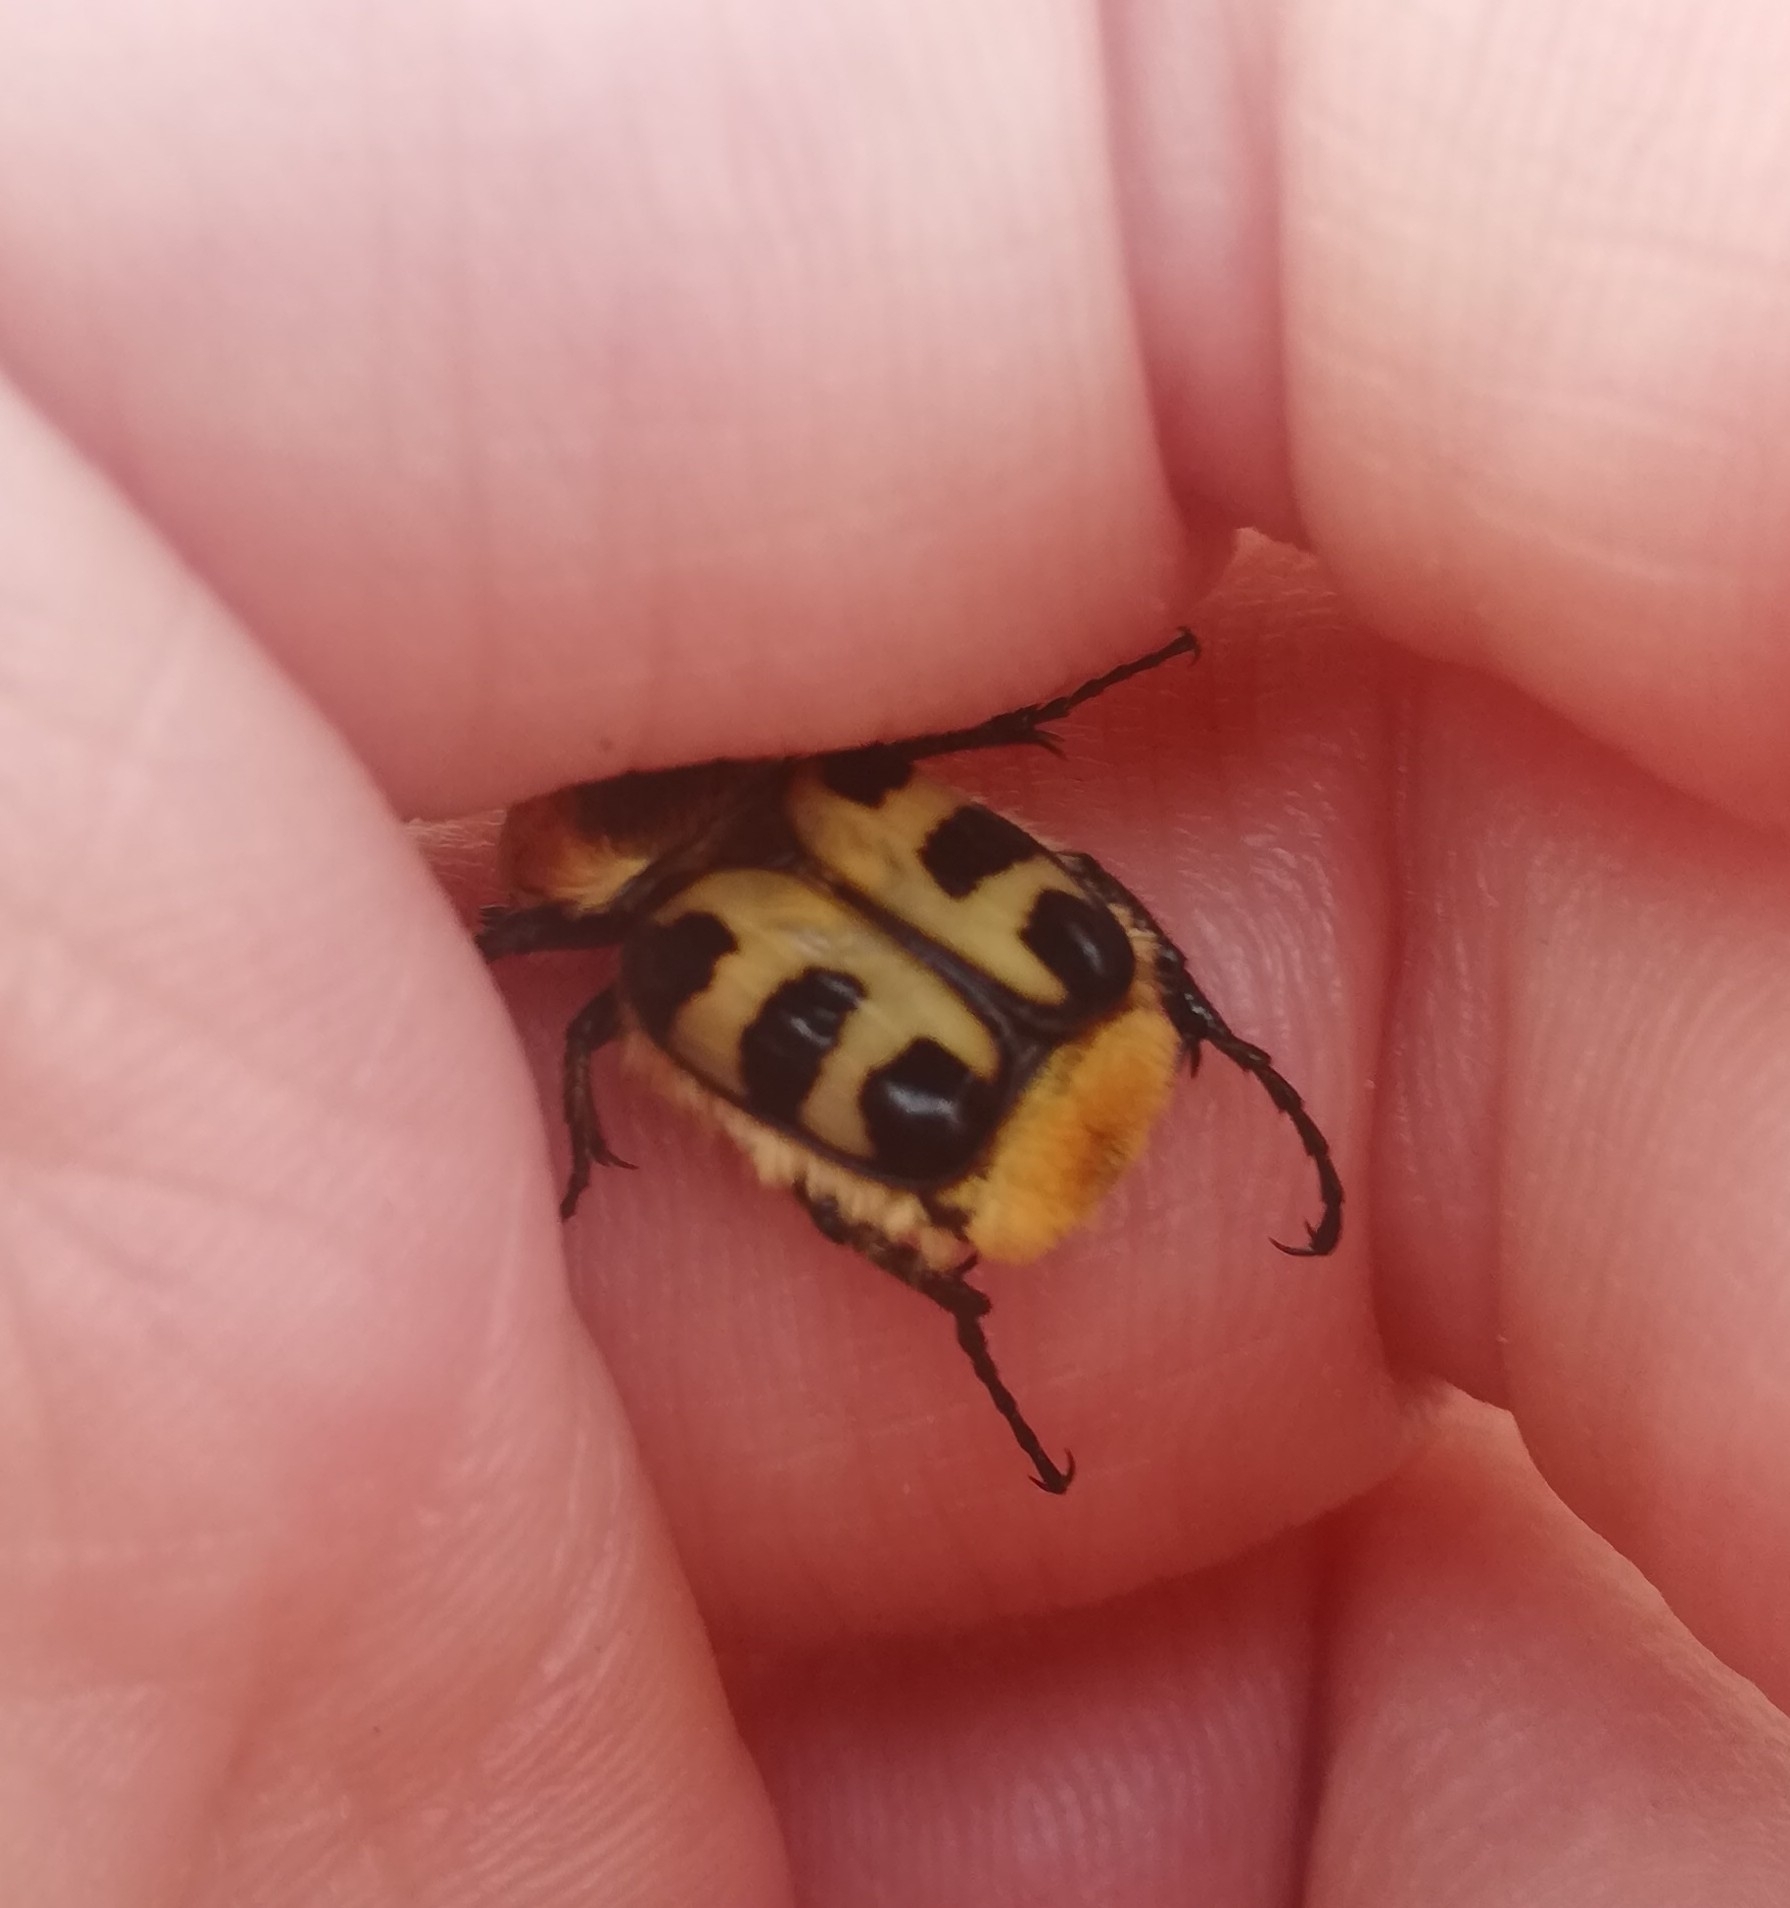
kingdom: Animalia
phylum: Arthropoda
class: Insecta
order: Coleoptera
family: Scarabaeidae
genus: Trichius
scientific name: Trichius gallicus
